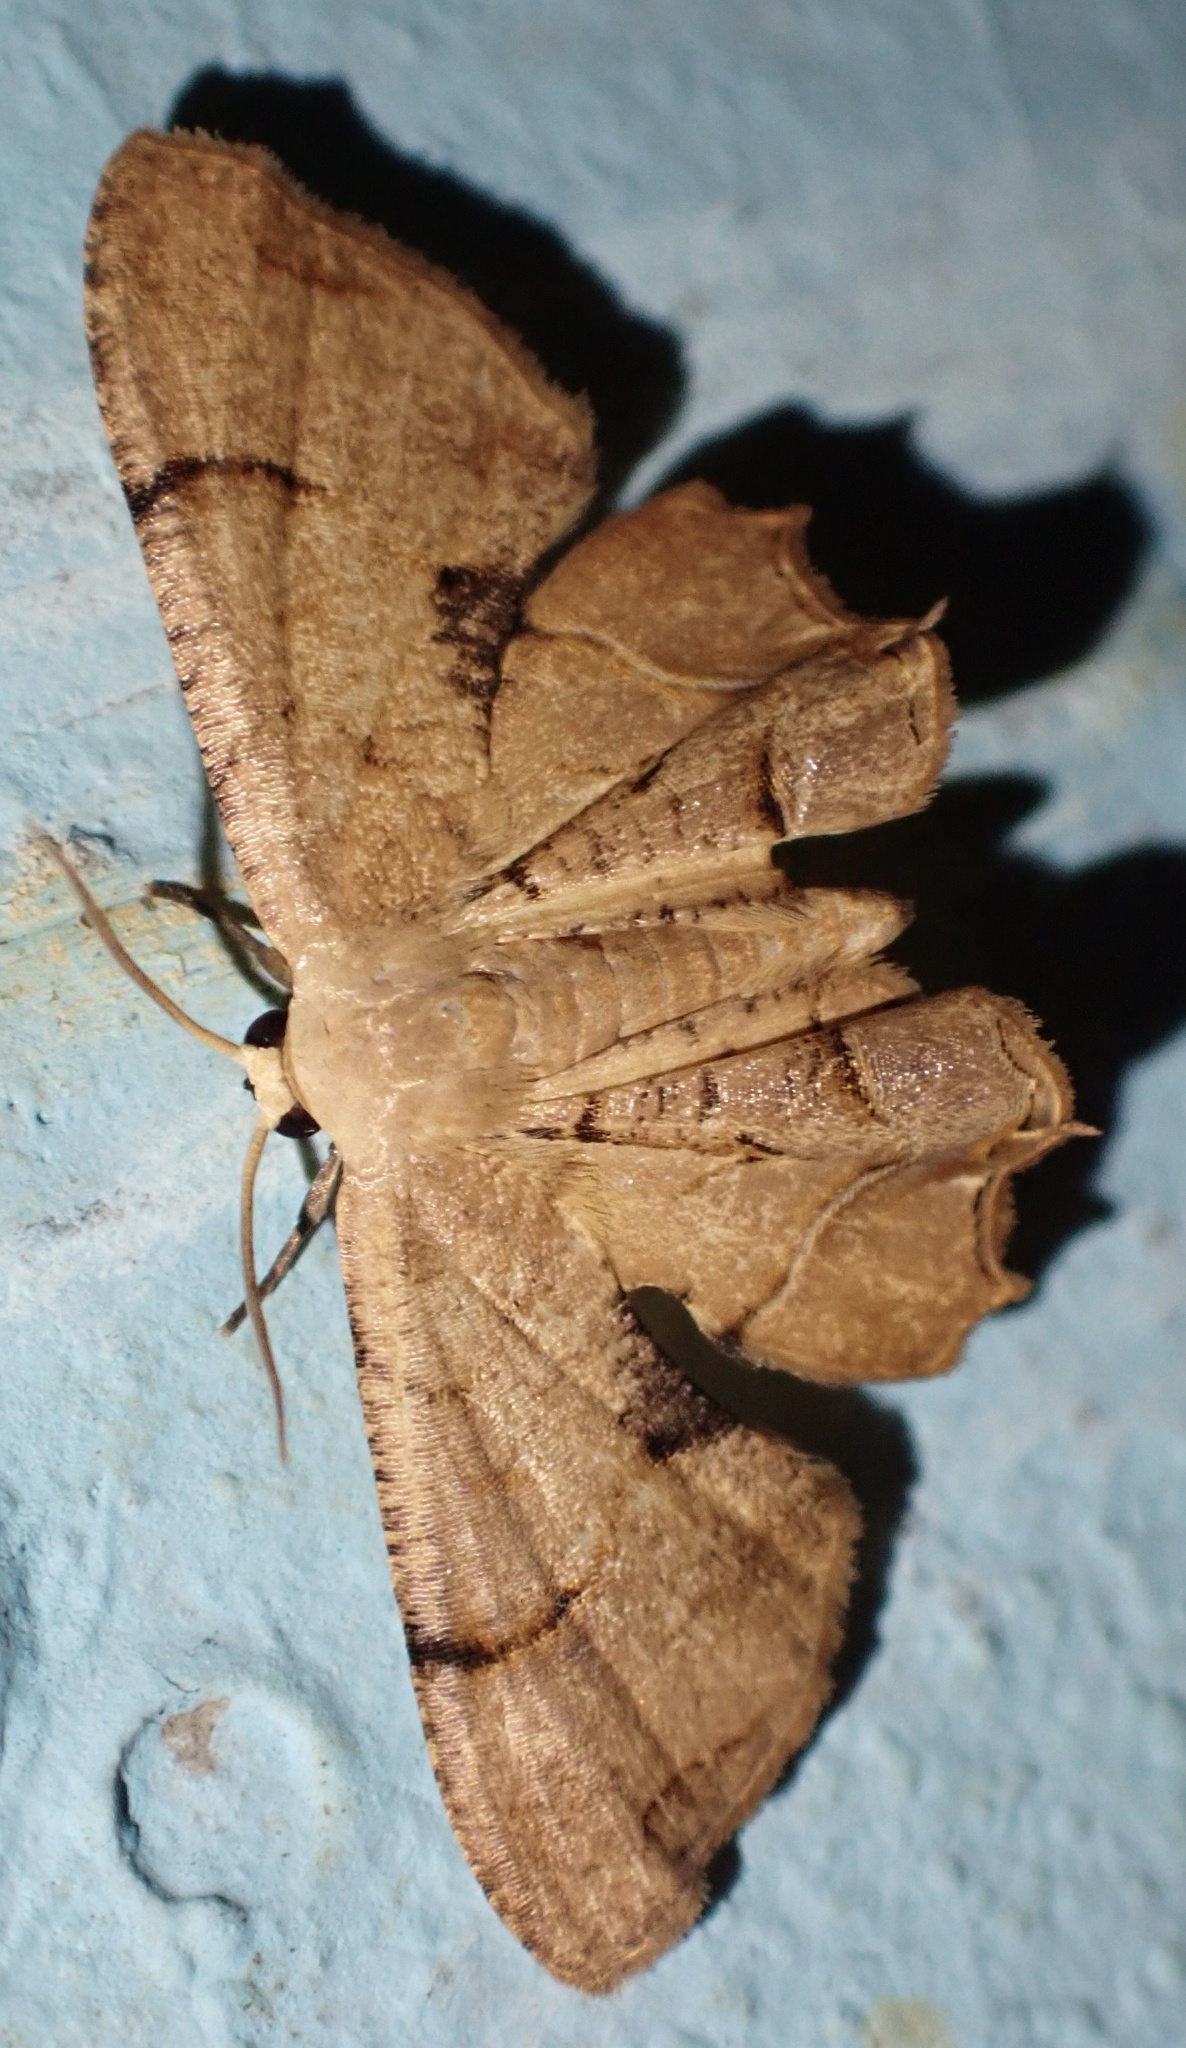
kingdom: Animalia
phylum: Arthropoda
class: Insecta
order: Lepidoptera
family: Uraniidae
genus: Dysaethria
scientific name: Dysaethria
